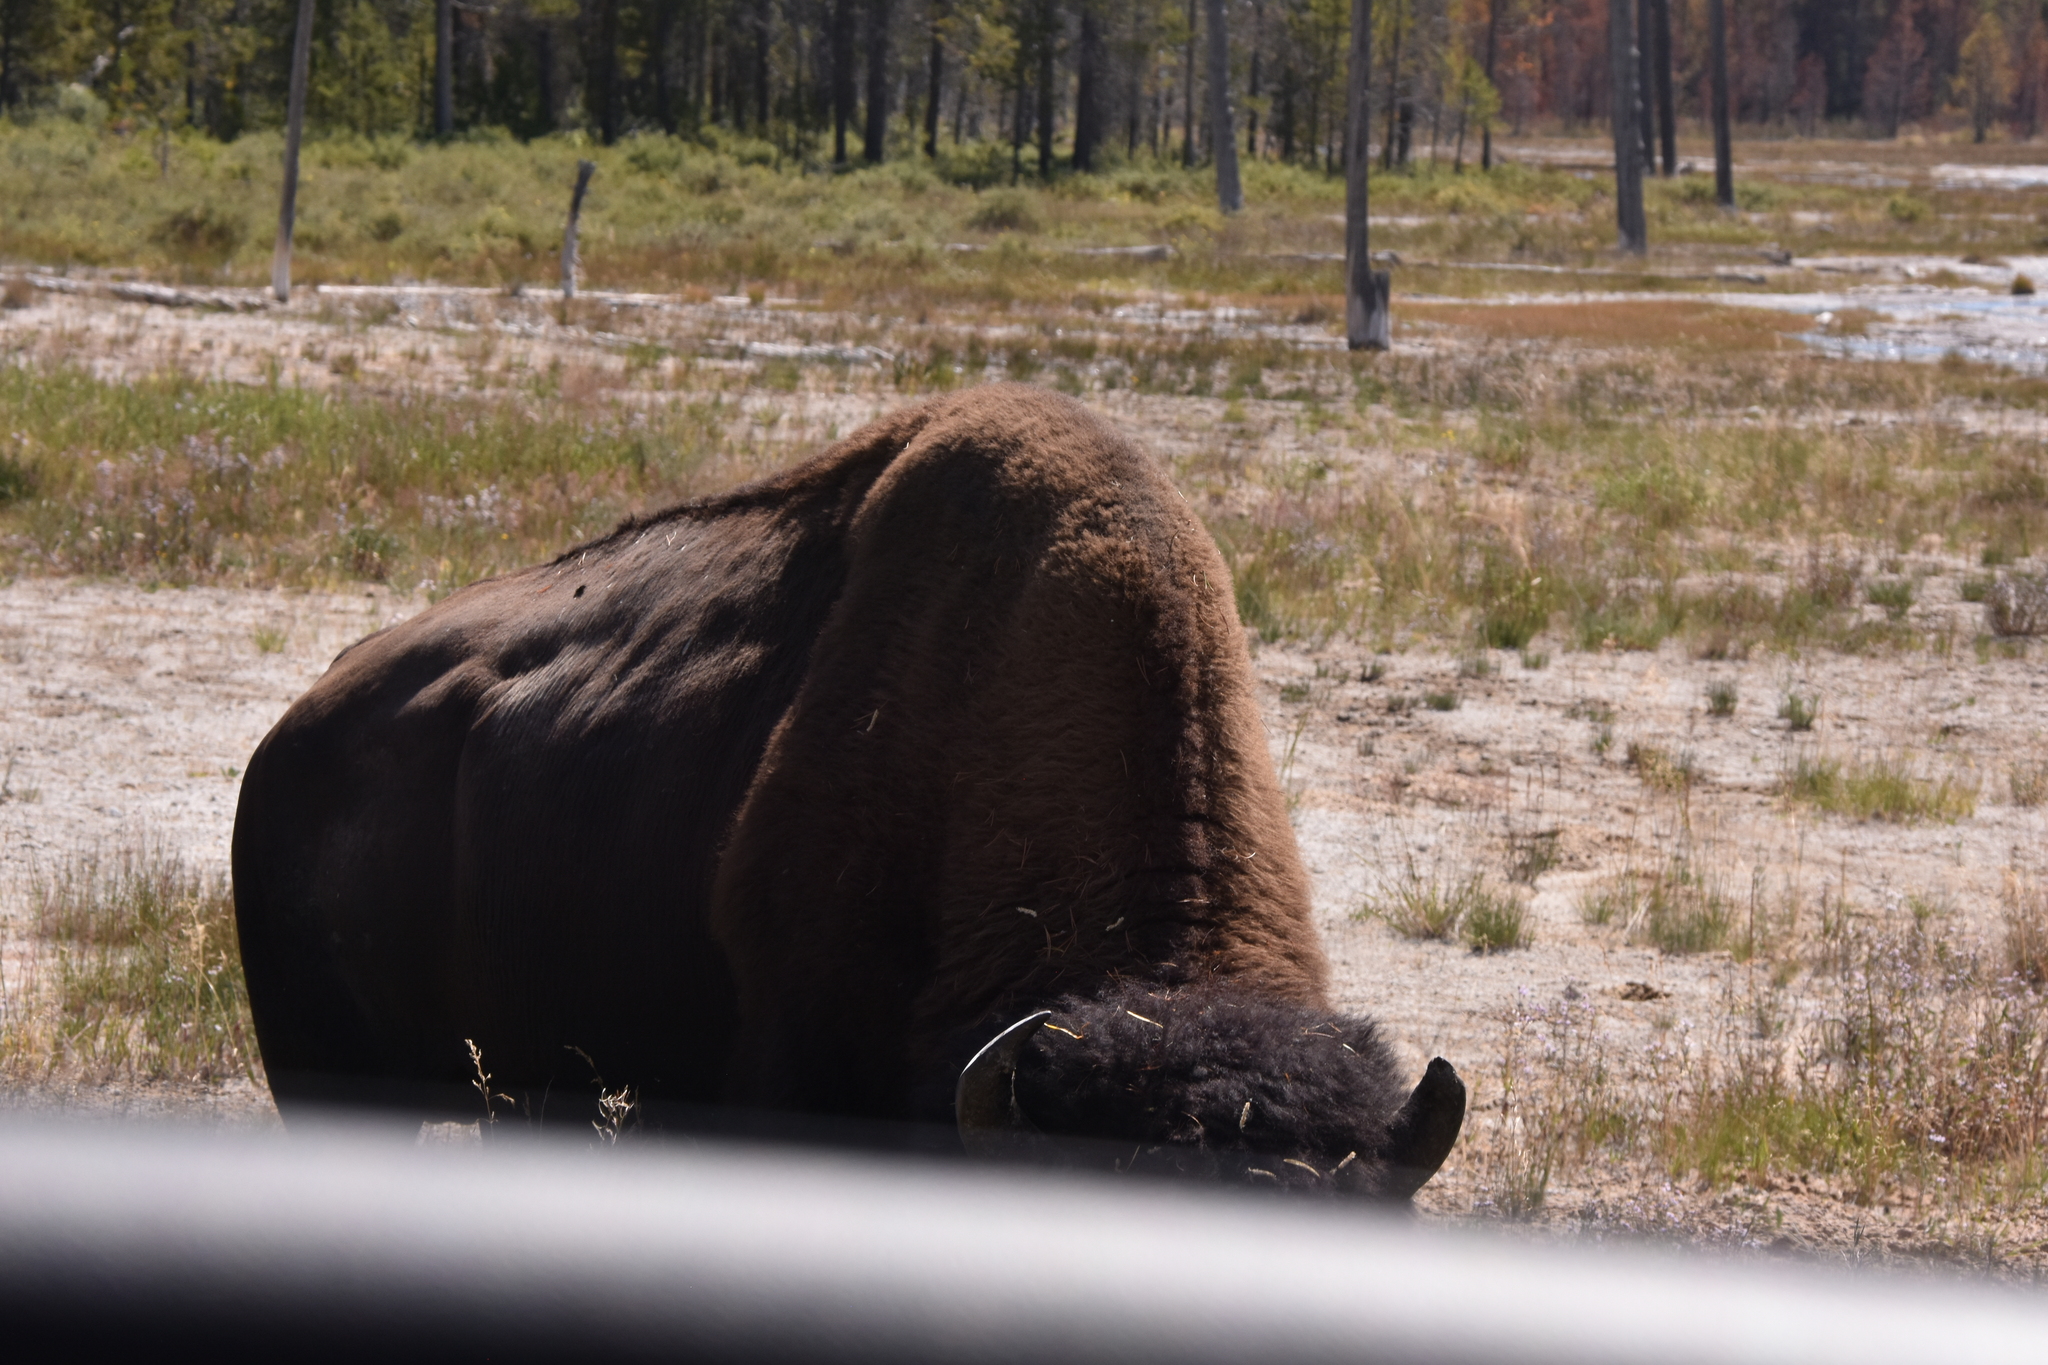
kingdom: Animalia
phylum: Chordata
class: Mammalia
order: Artiodactyla
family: Bovidae
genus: Bison
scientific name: Bison bison
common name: American bison
